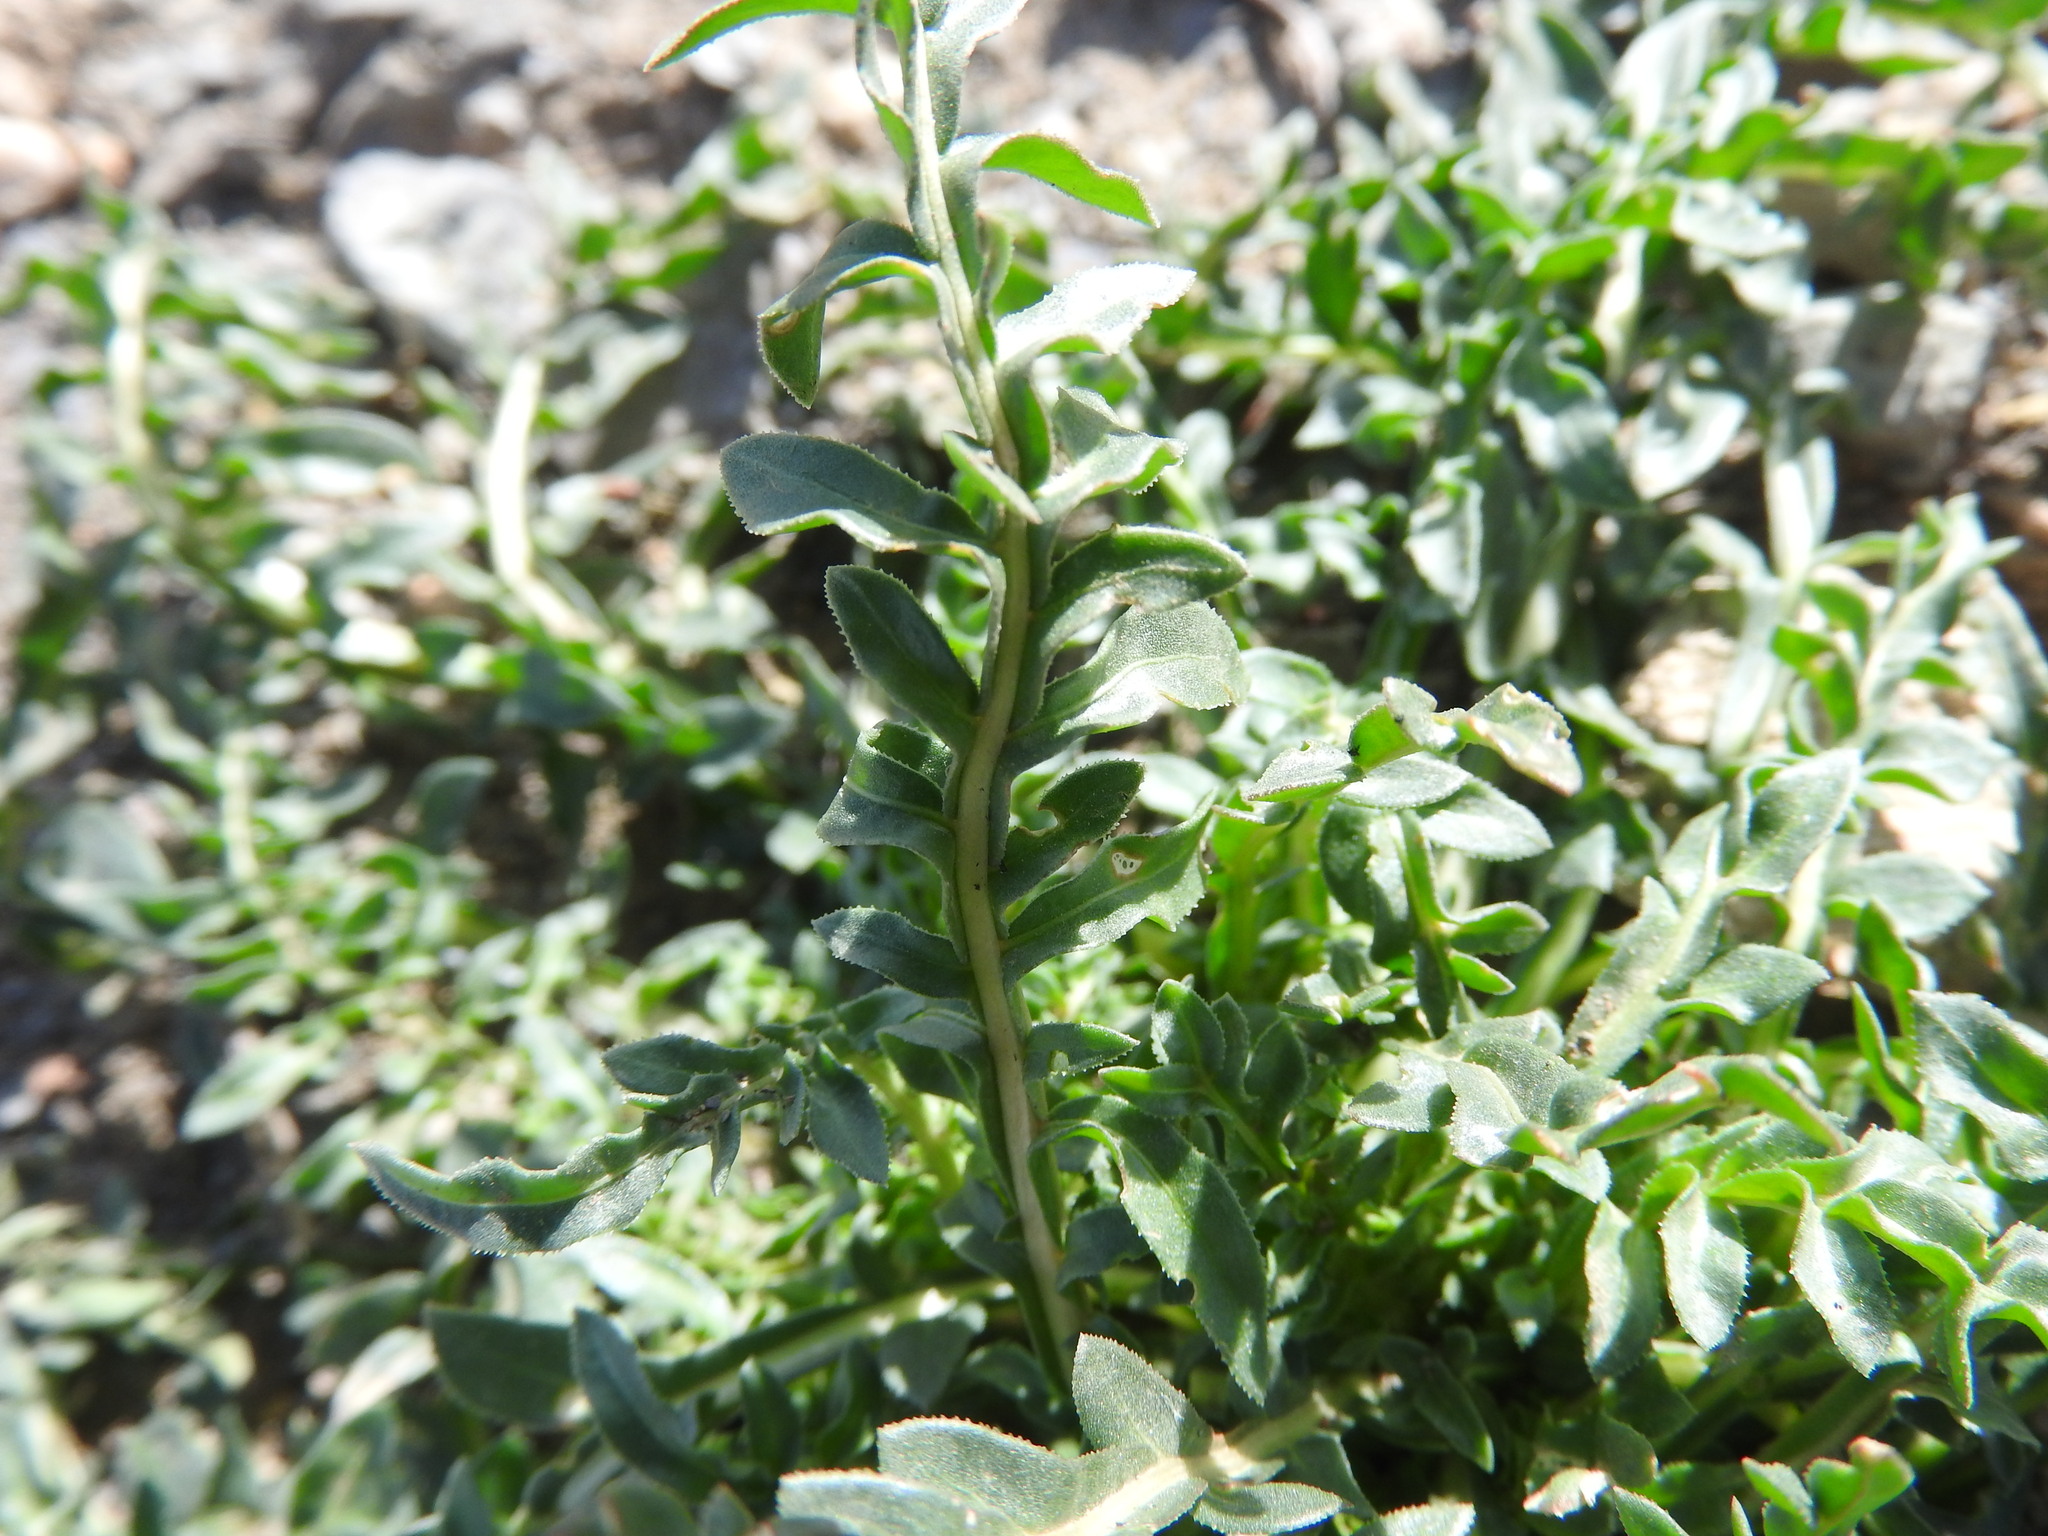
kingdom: Plantae
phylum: Tracheophyta
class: Magnoliopsida
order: Brassicales
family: Resedaceae
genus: Reseda
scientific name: Reseda alba
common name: White mignonette
